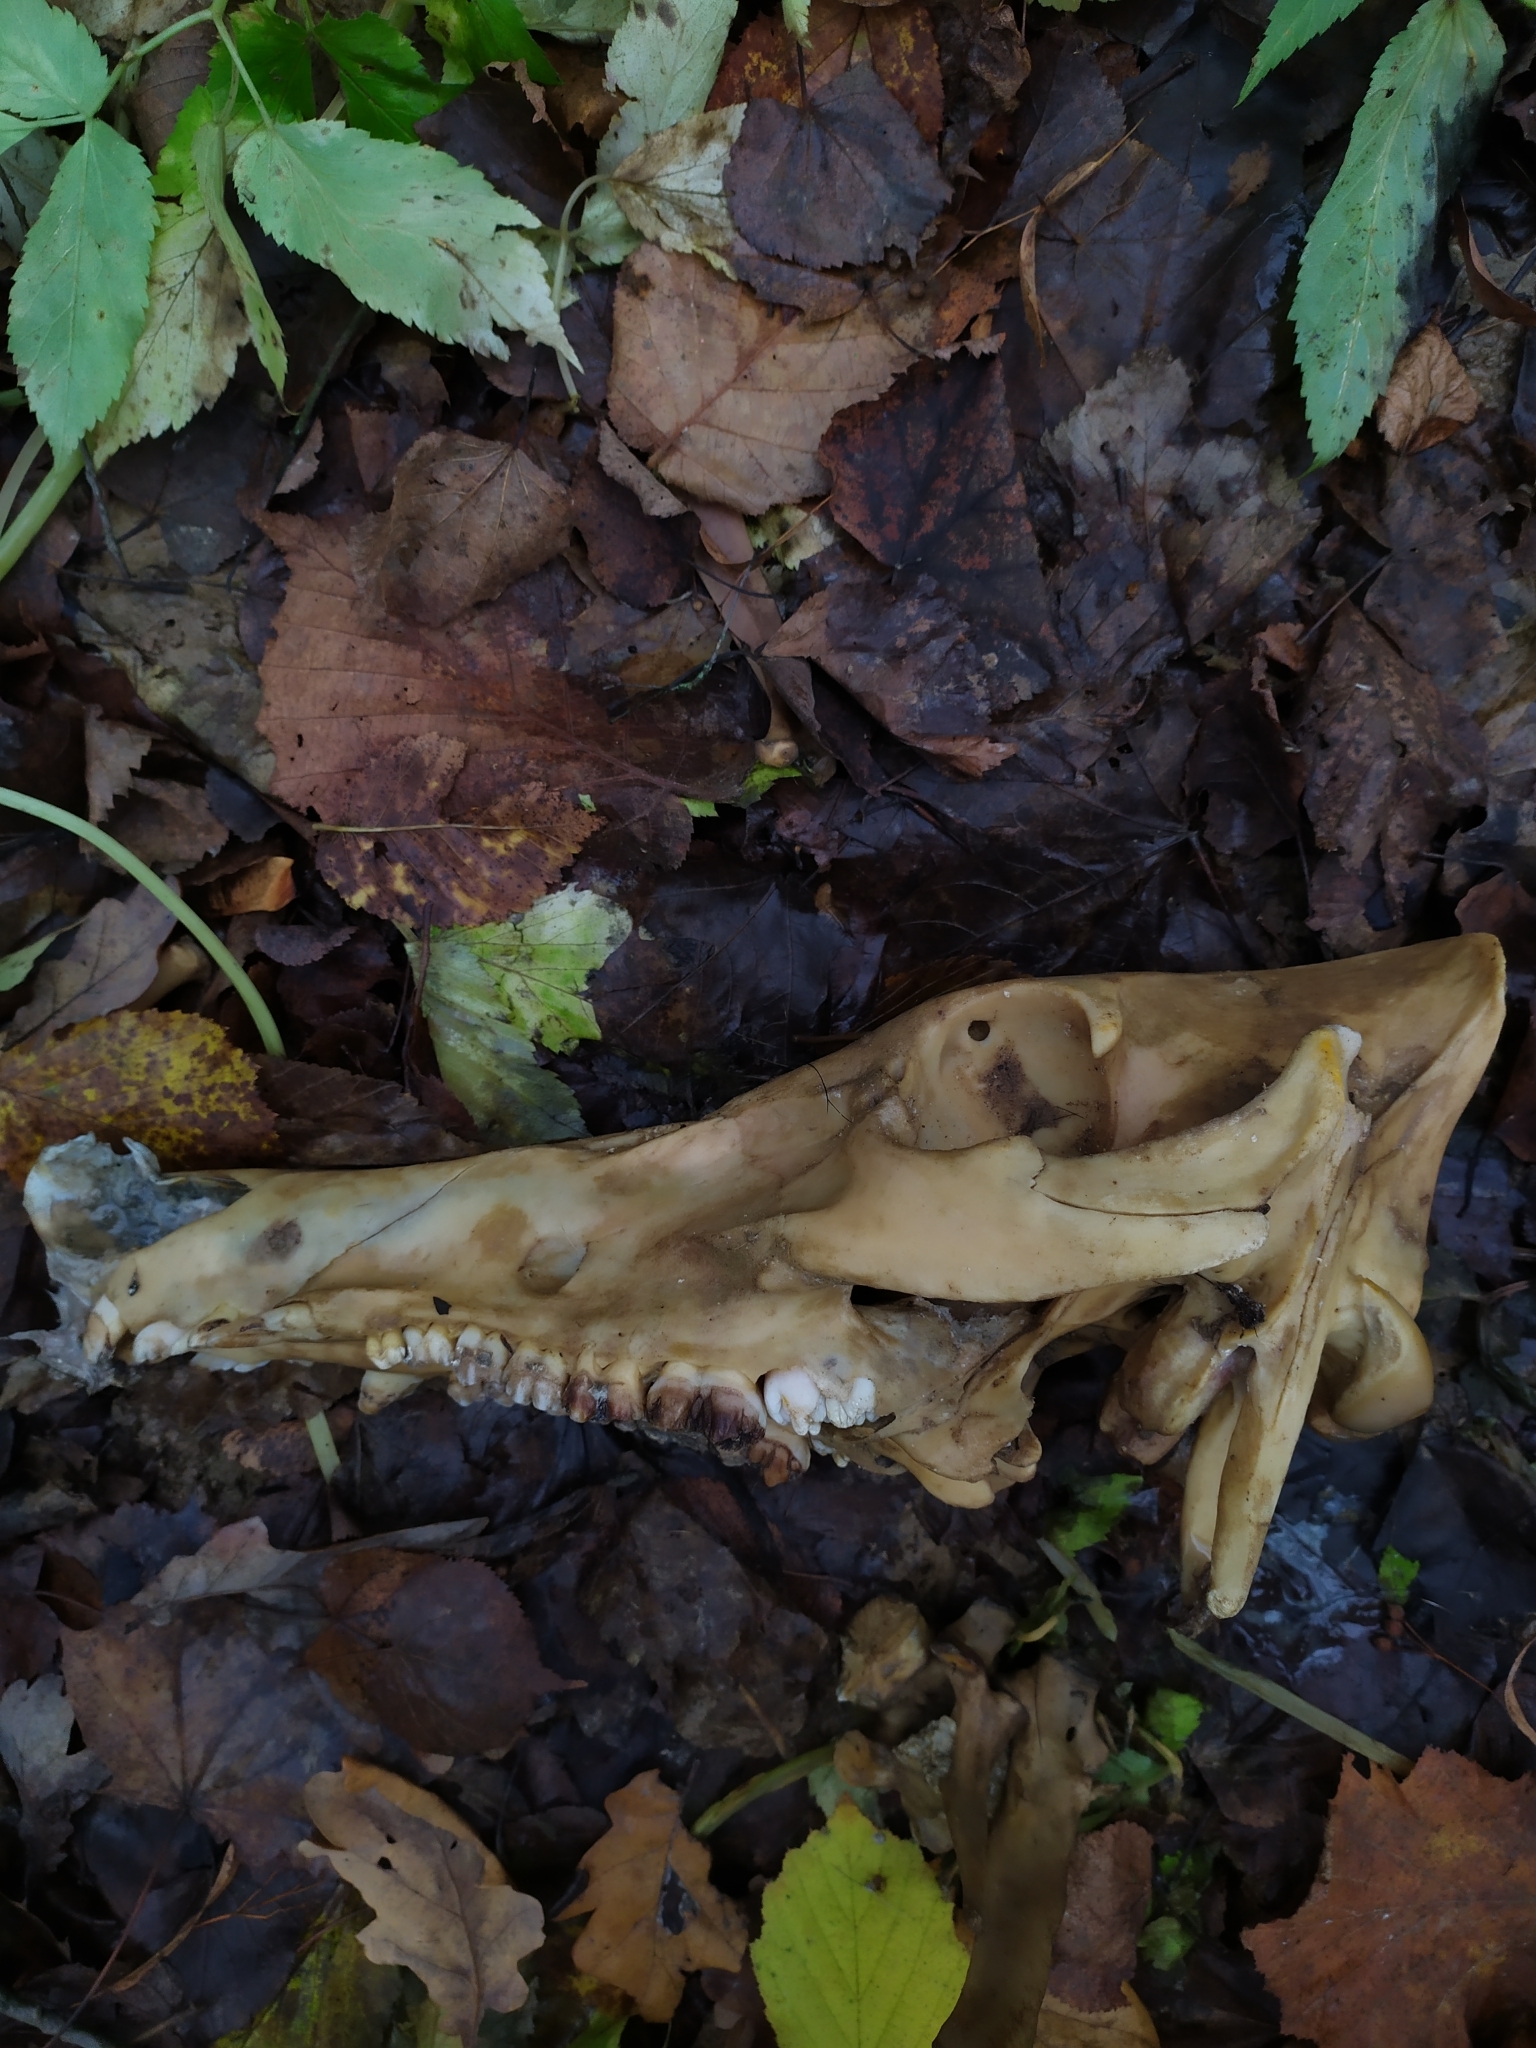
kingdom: Animalia
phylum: Chordata
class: Mammalia
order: Artiodactyla
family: Suidae
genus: Sus
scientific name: Sus scrofa
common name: Wild boar
